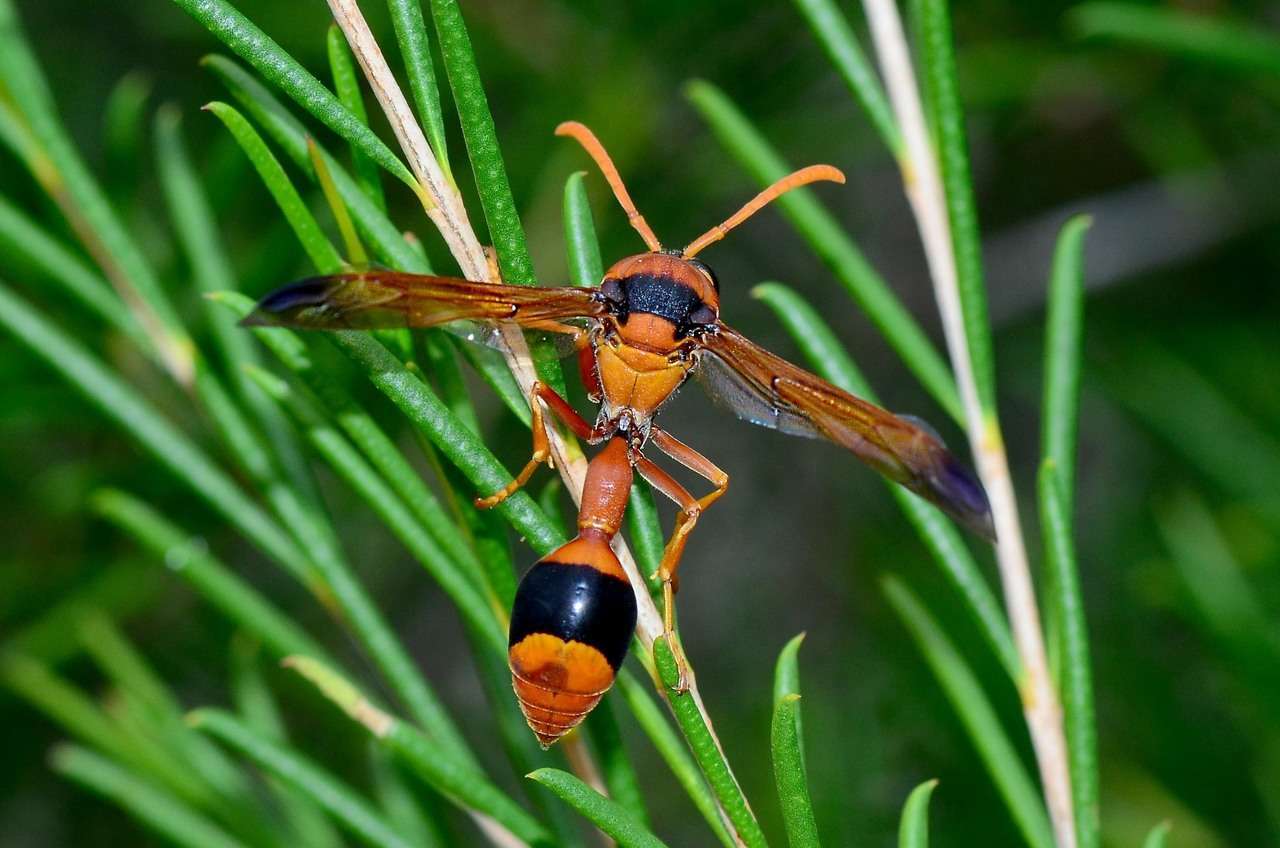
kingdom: Animalia
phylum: Arthropoda
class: Insecta
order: Hymenoptera
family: Eumenidae
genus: Delta
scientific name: Delta bicinctum
